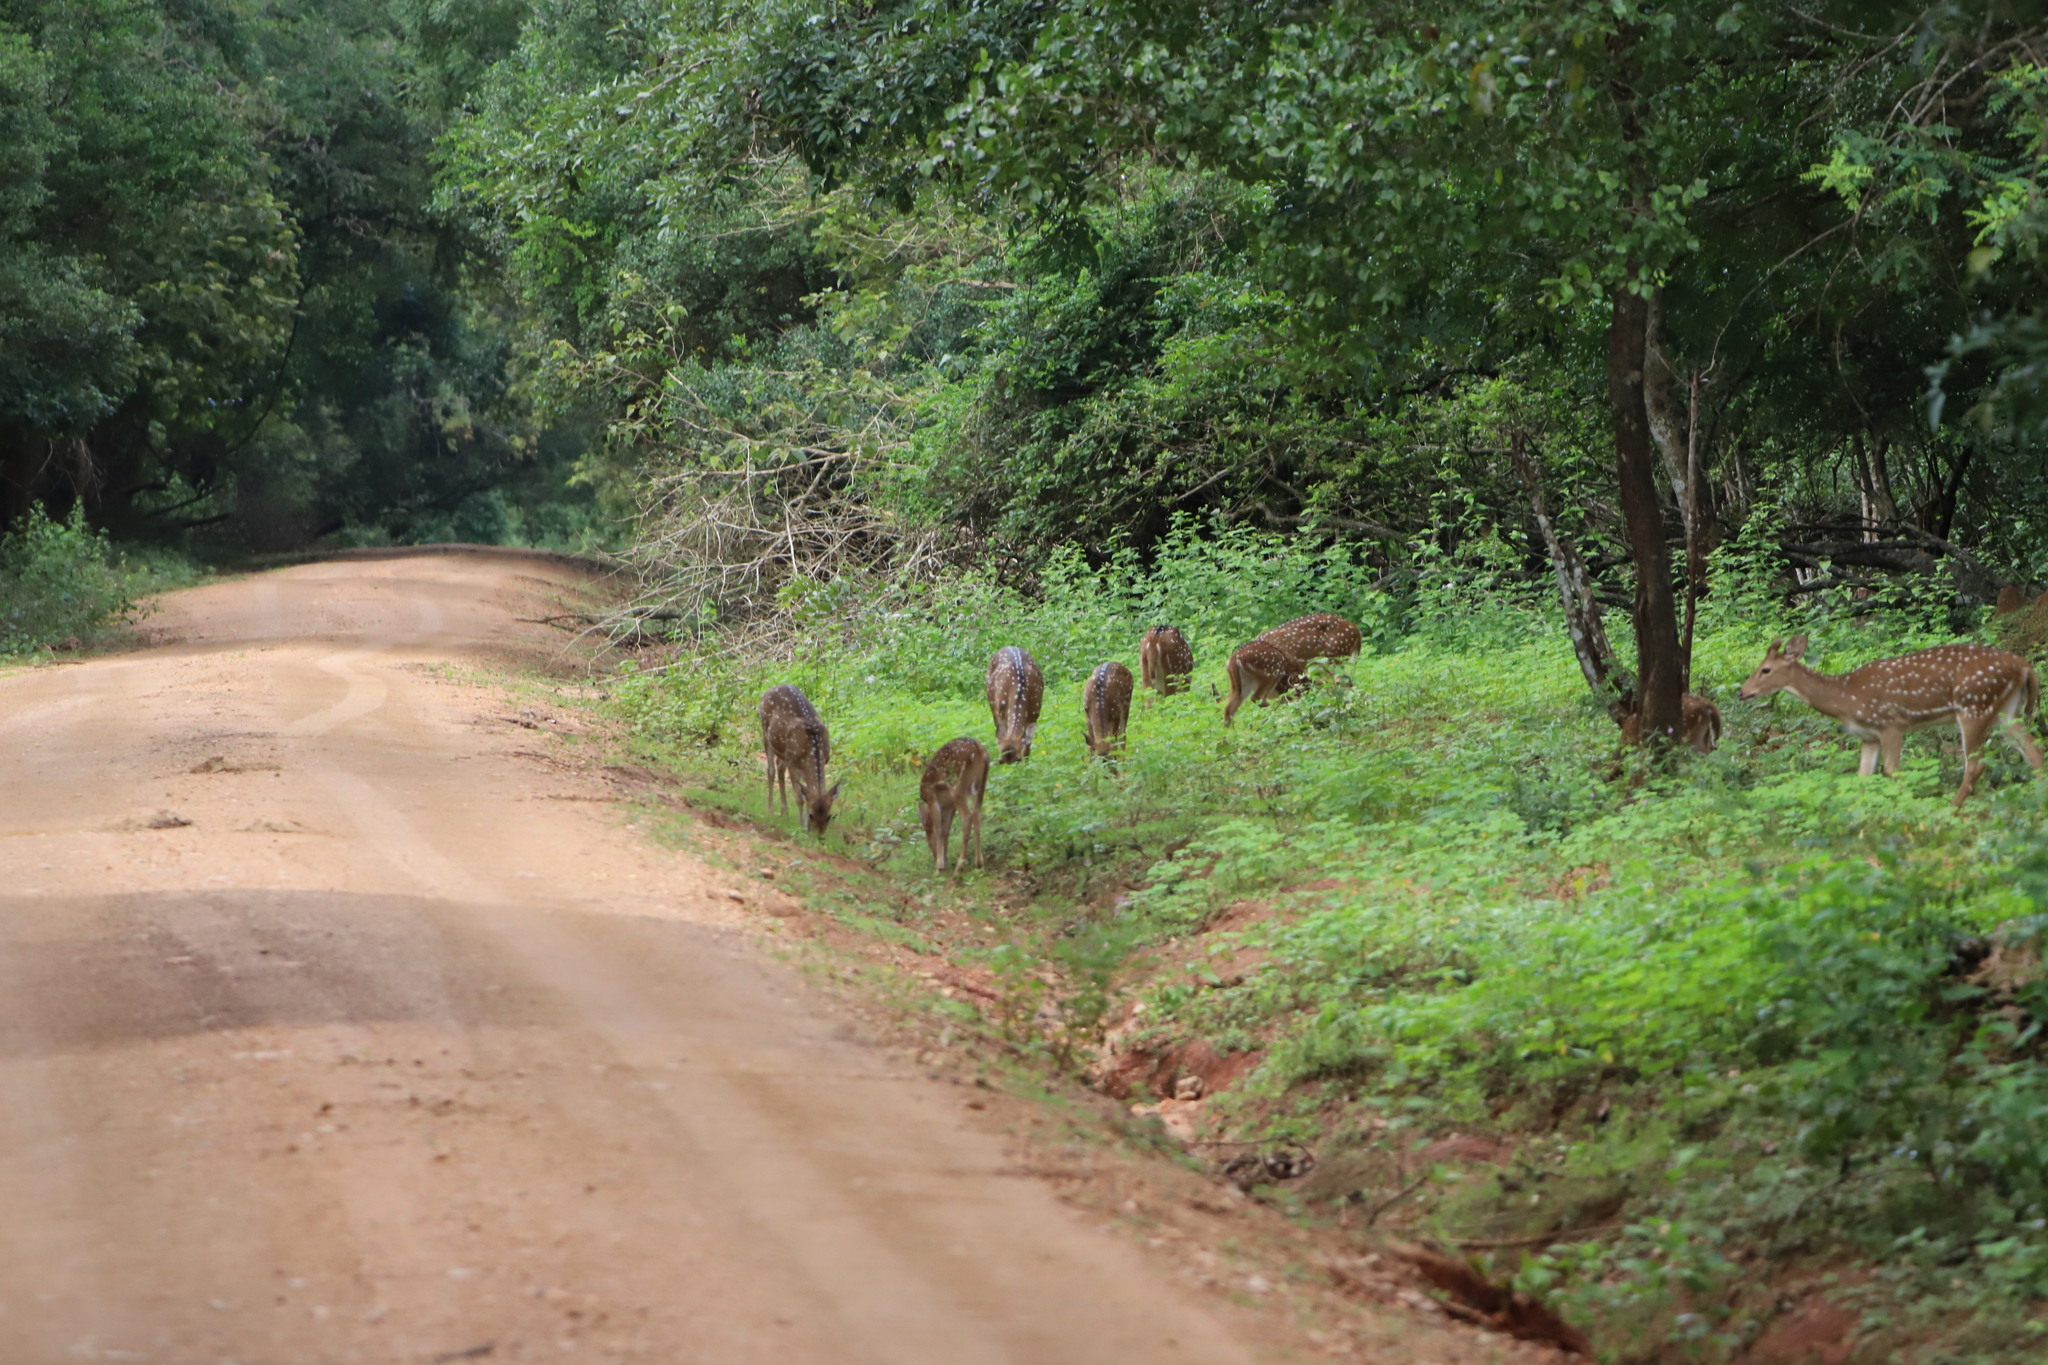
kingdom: Animalia
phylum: Chordata
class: Mammalia
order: Artiodactyla
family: Cervidae
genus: Axis
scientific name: Axis axis
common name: Chital
